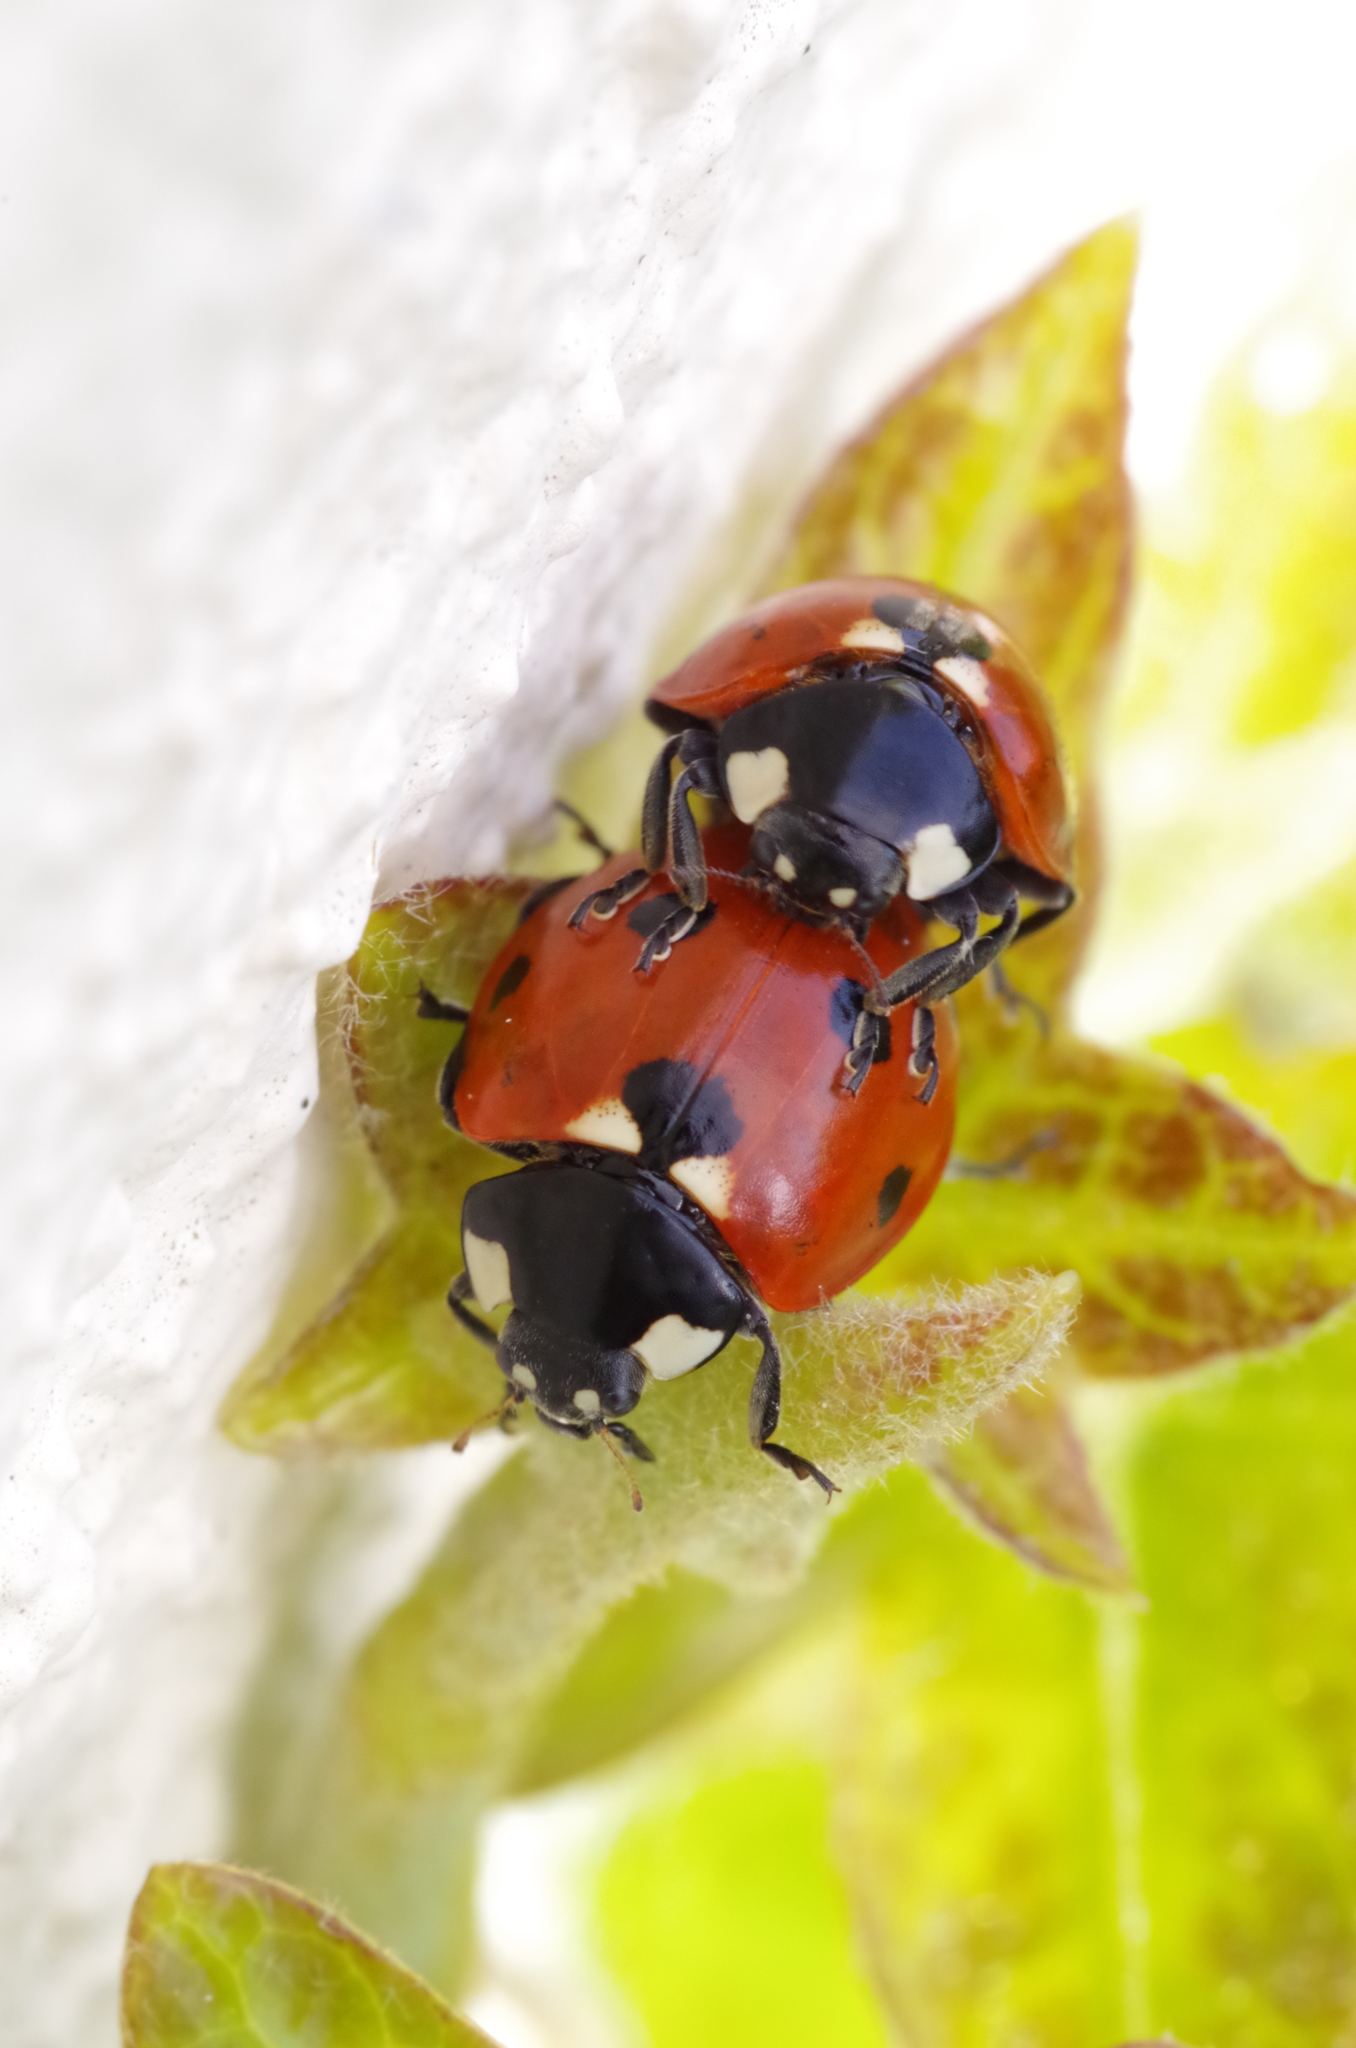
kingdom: Animalia
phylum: Arthropoda
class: Insecta
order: Coleoptera
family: Coccinellidae
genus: Coccinella
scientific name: Coccinella septempunctata
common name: Sevenspotted lady beetle
